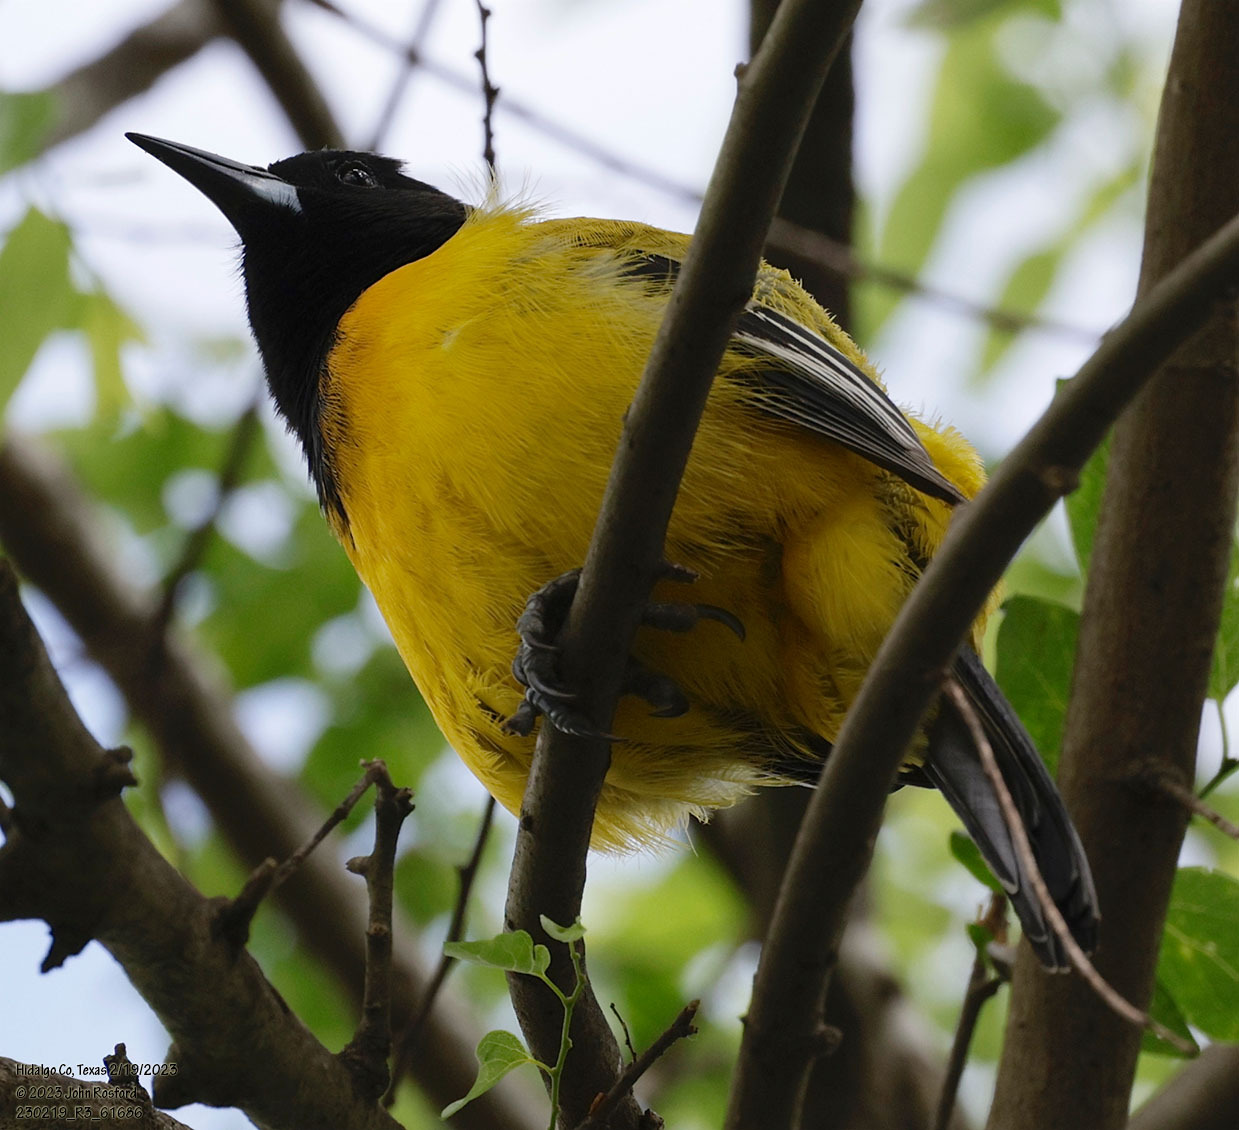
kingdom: Animalia
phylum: Chordata
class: Aves
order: Passeriformes
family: Icteridae
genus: Icterus
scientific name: Icterus graduacauda
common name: Audubon's oriole
